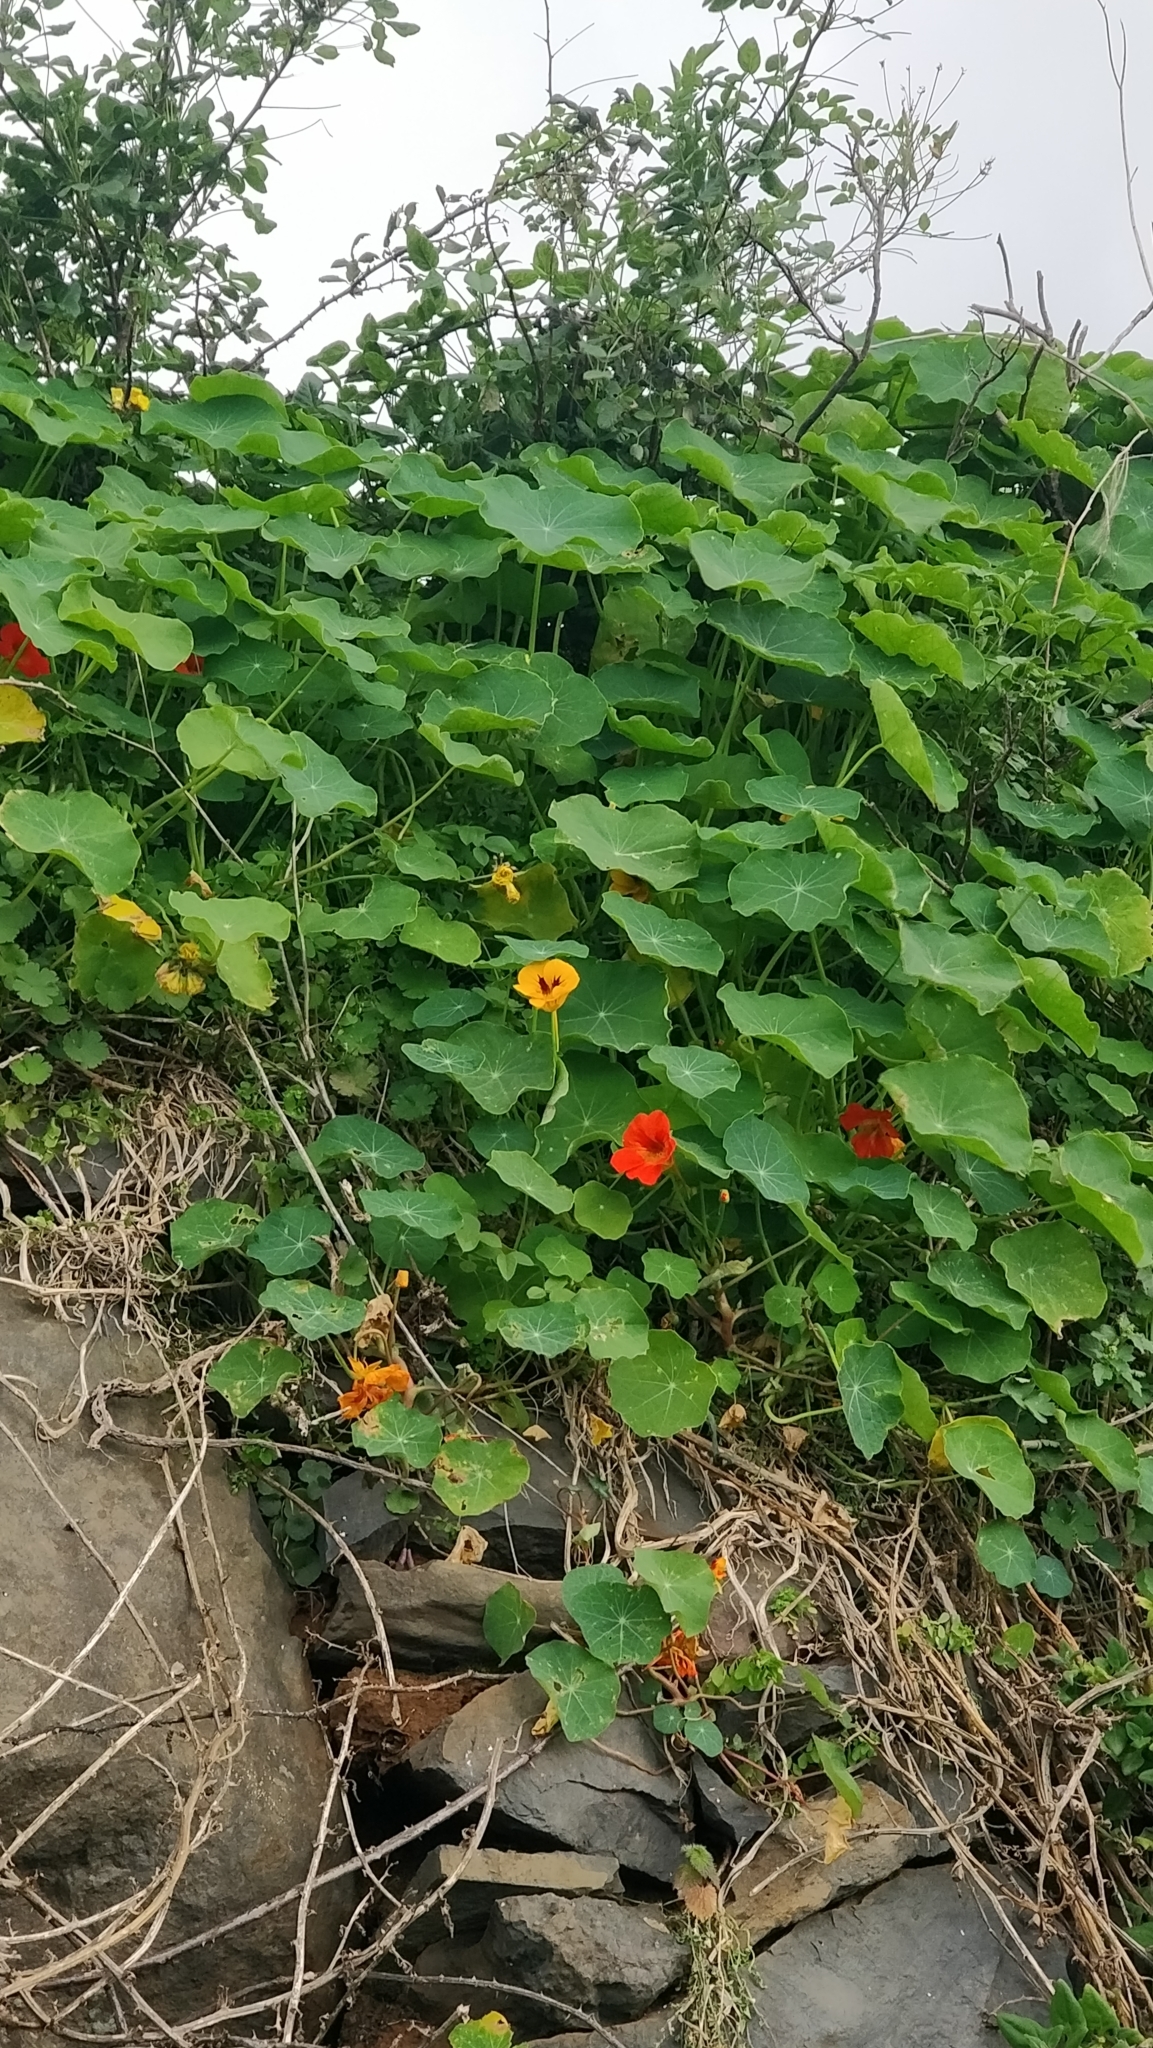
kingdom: Plantae
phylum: Tracheophyta
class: Magnoliopsida
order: Brassicales
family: Tropaeolaceae
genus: Tropaeolum
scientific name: Tropaeolum majus
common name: Nasturtium
